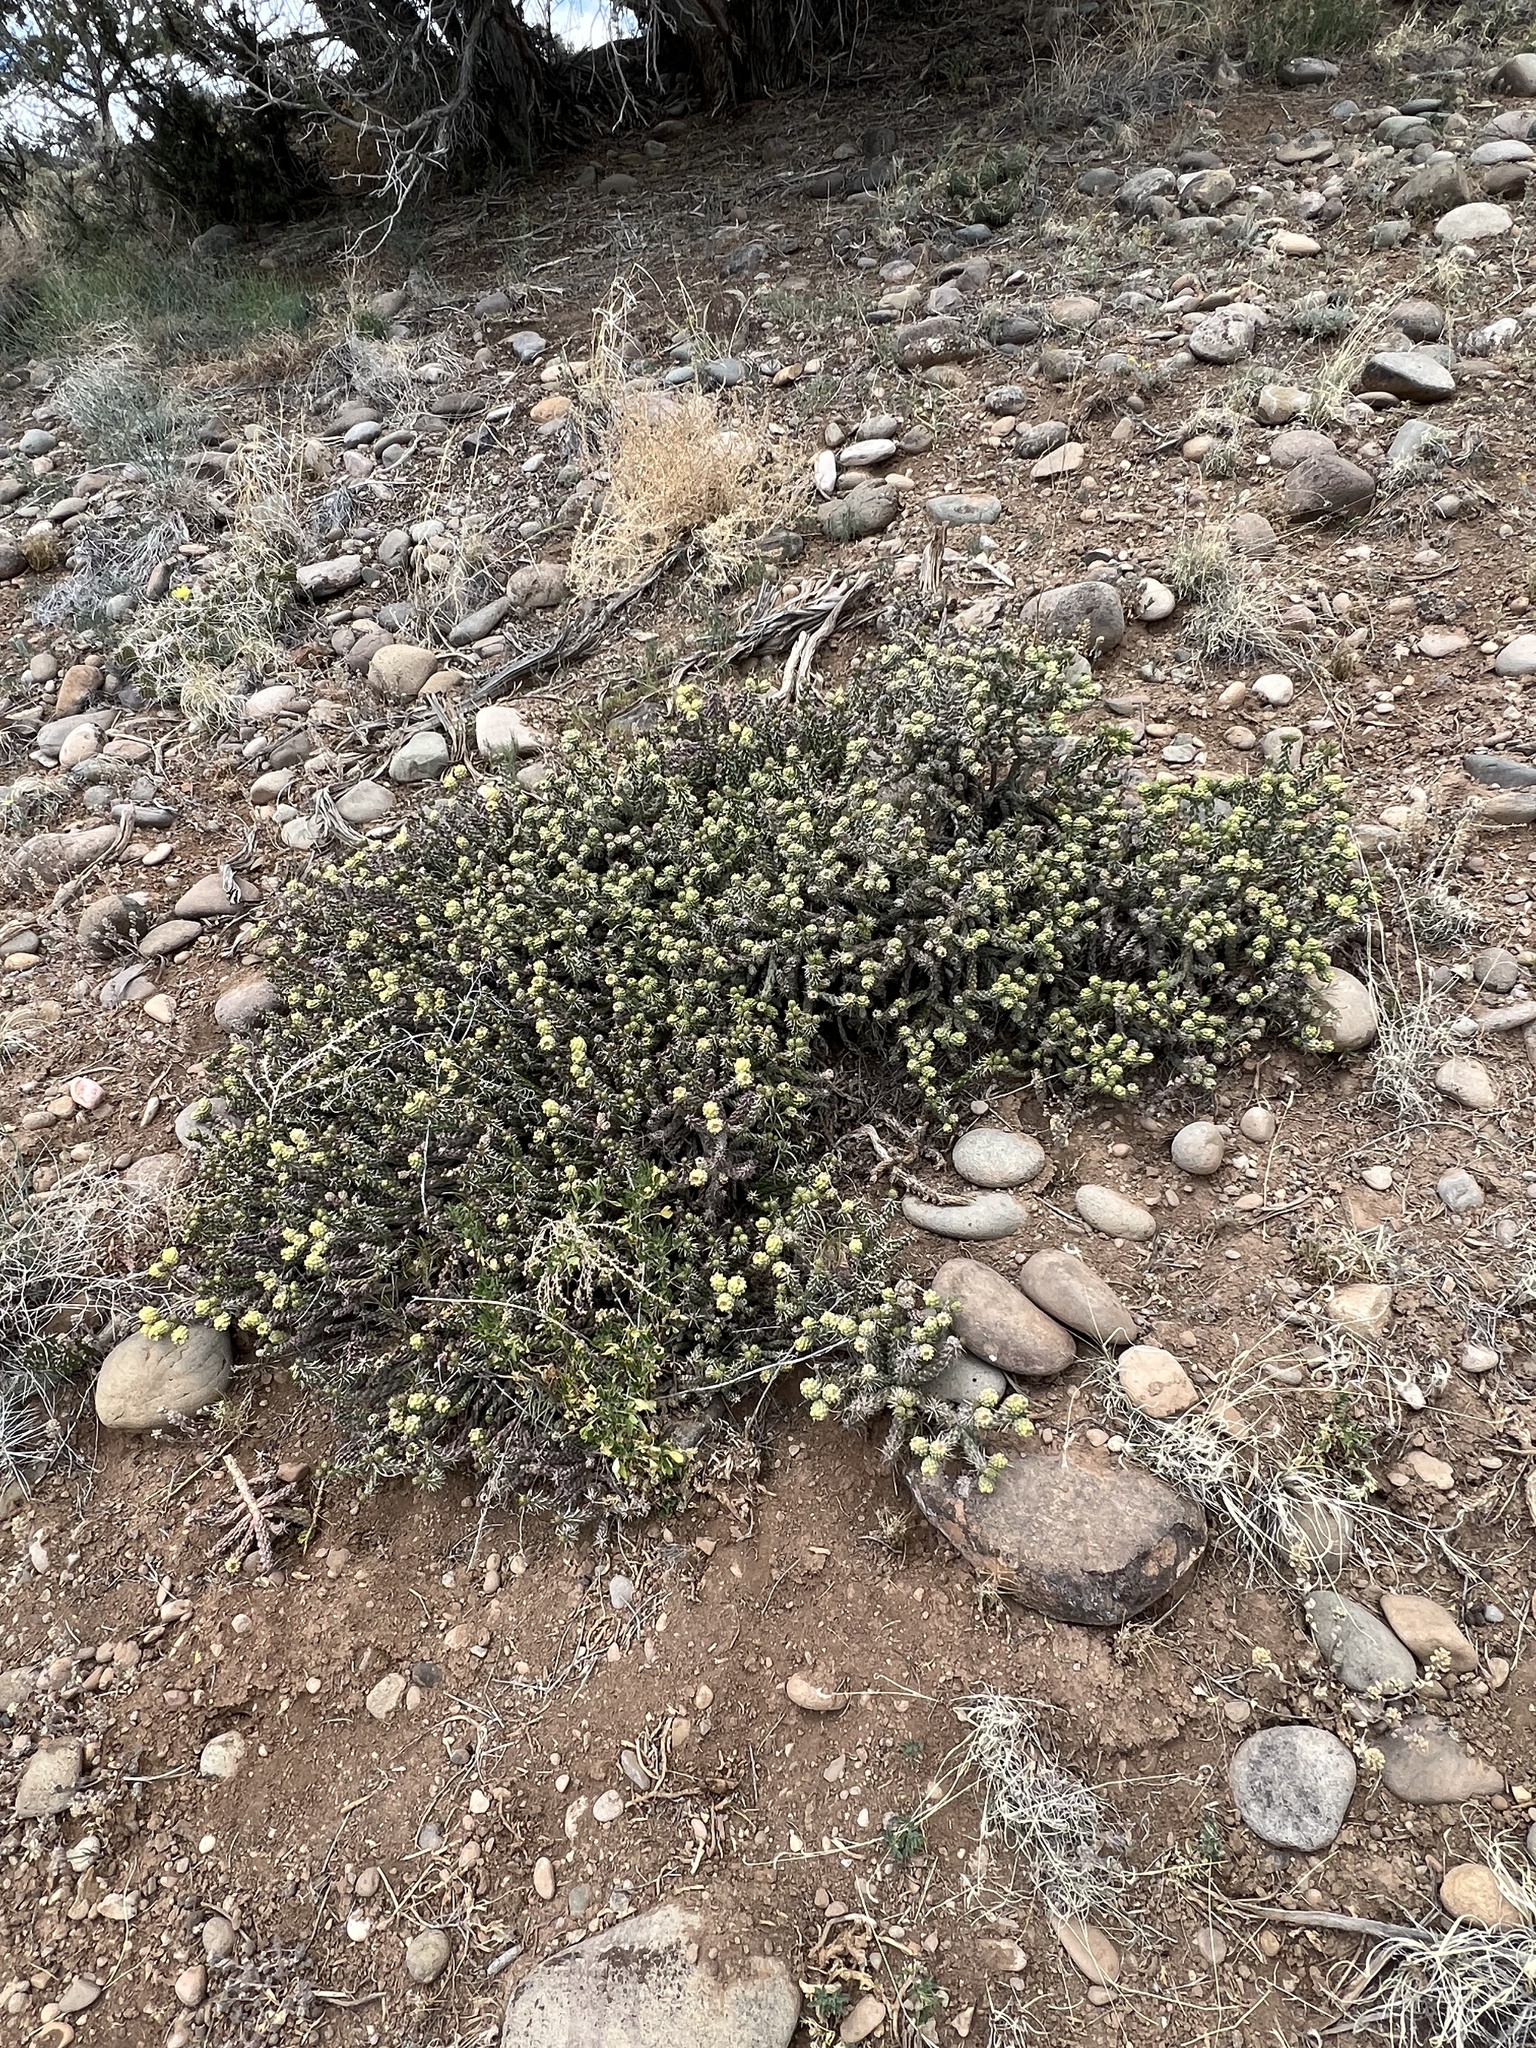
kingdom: Plantae
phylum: Tracheophyta
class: Magnoliopsida
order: Caryophyllales
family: Cactaceae
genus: Cylindropuntia
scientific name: Cylindropuntia whipplei
